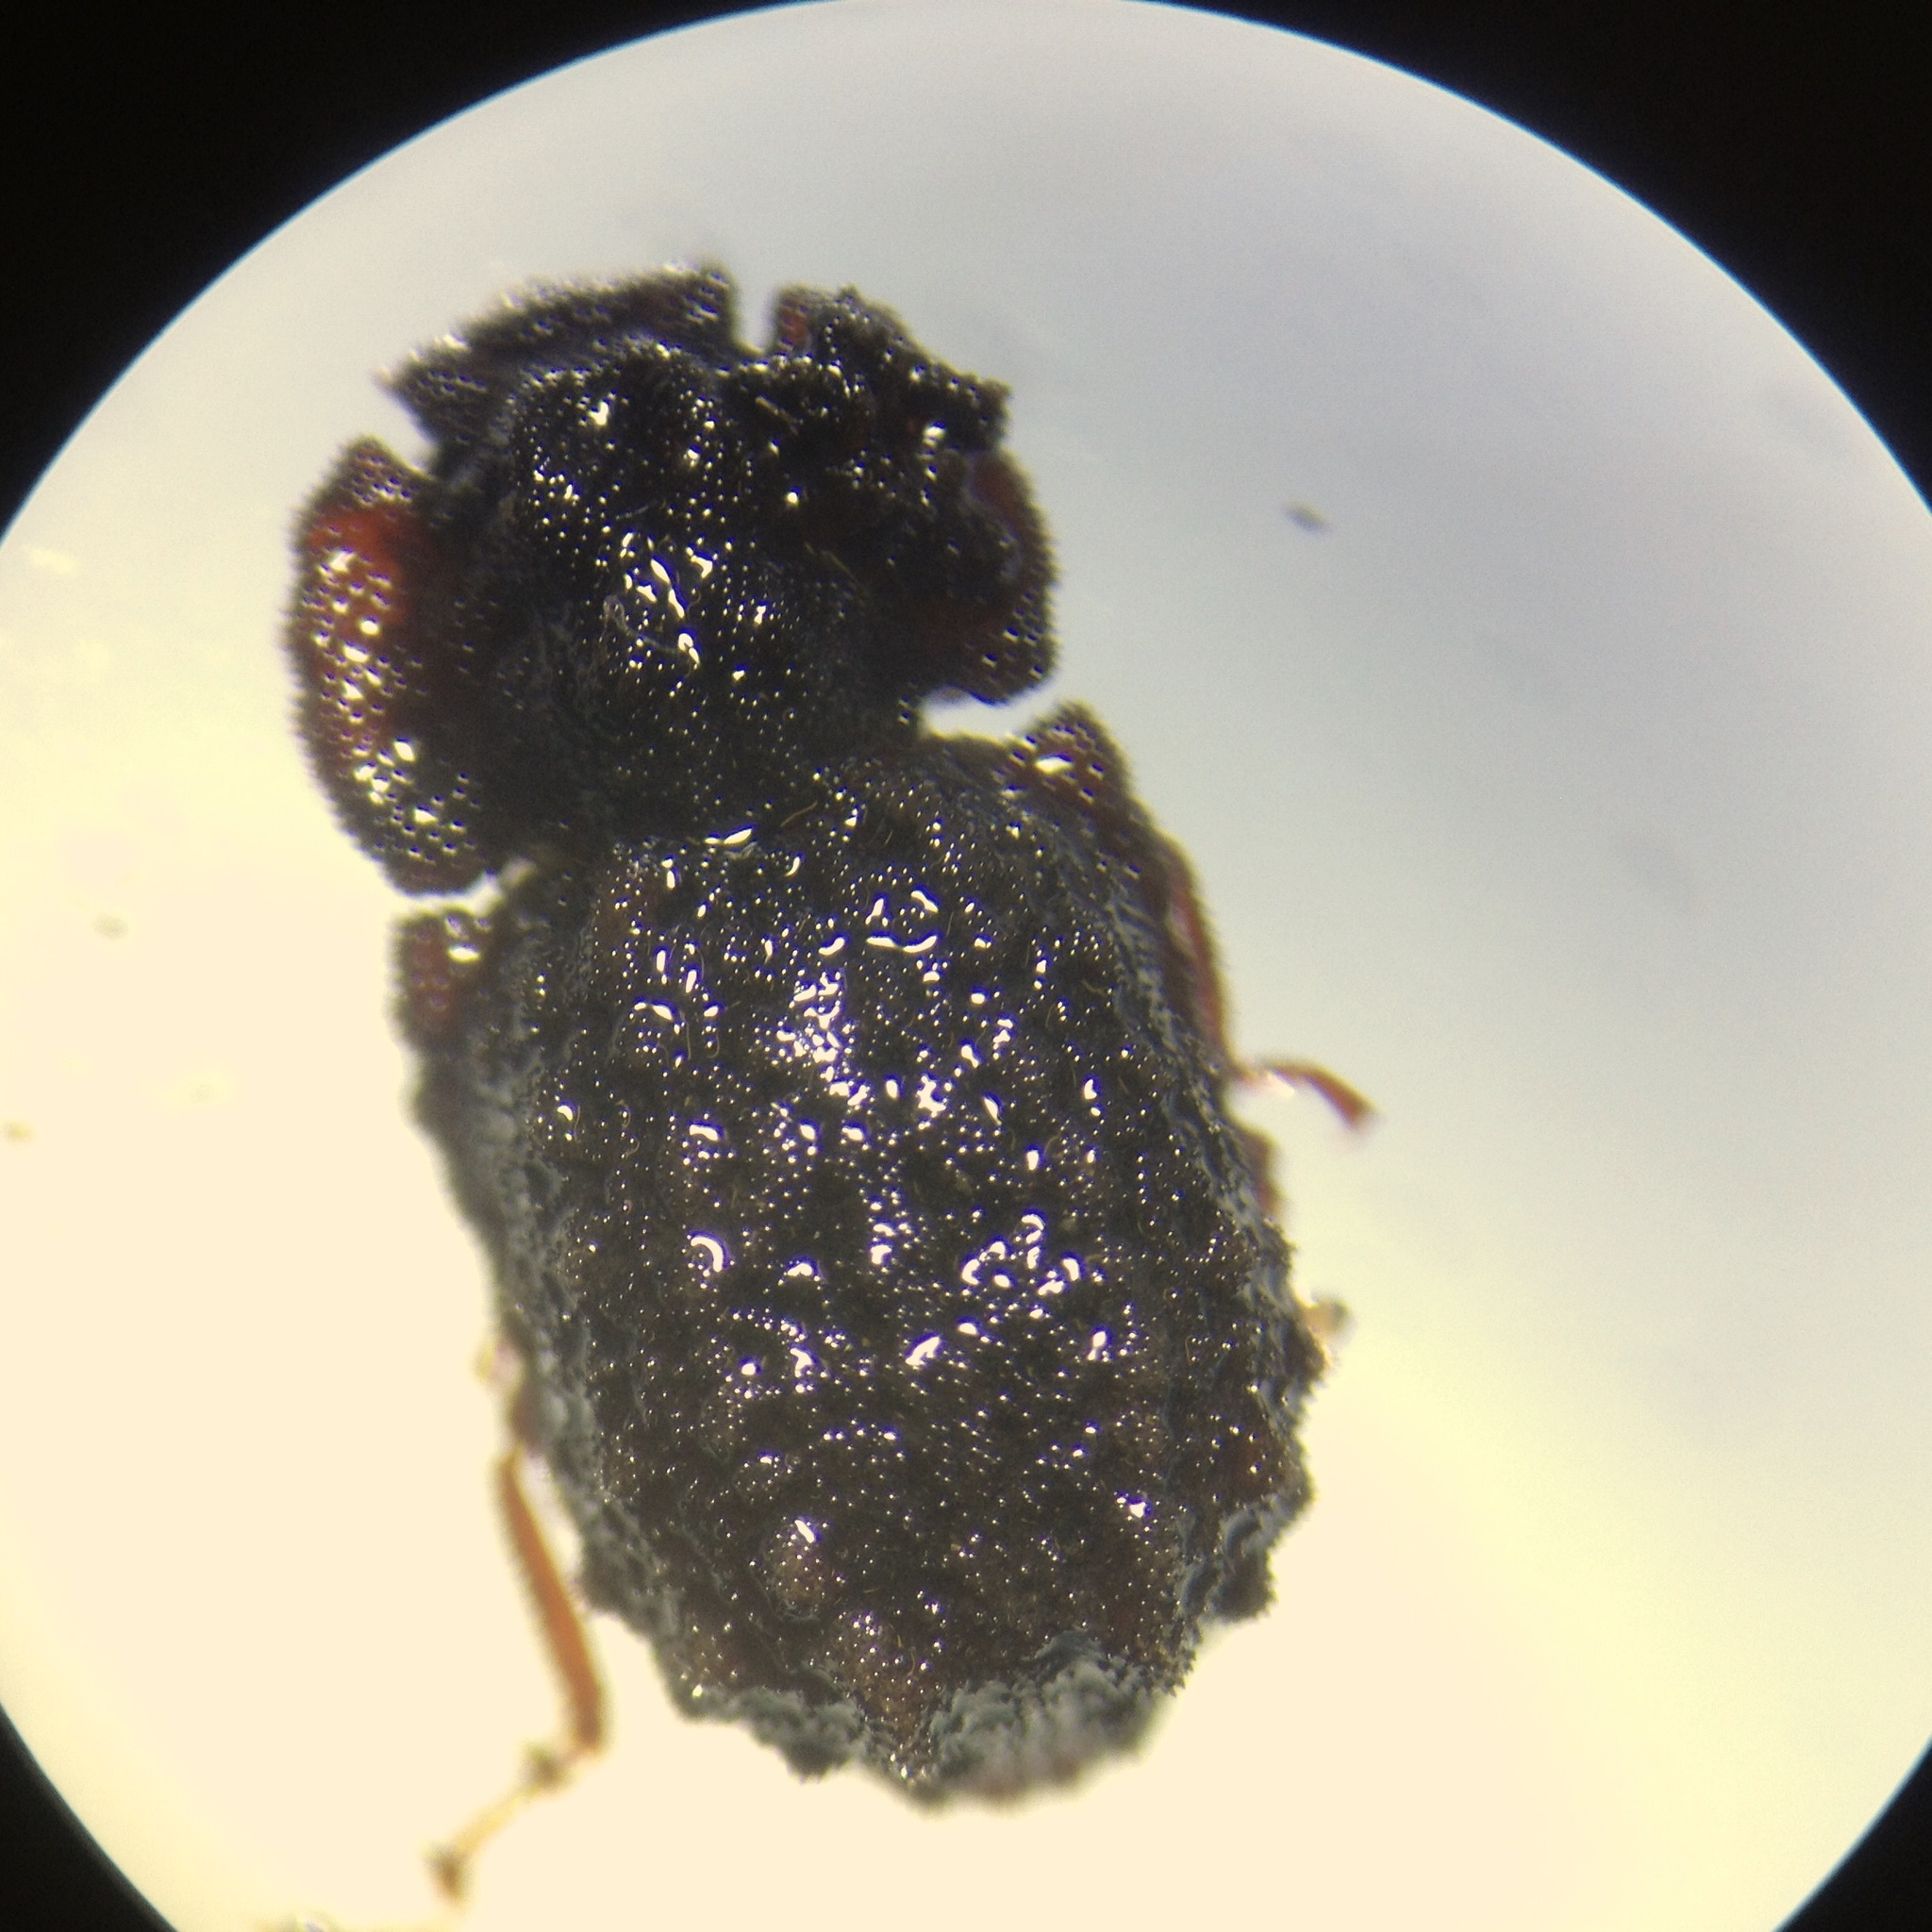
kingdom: Animalia
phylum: Arthropoda
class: Insecta
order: Coleoptera
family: Zopheridae
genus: Pristoderus
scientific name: Pristoderus
